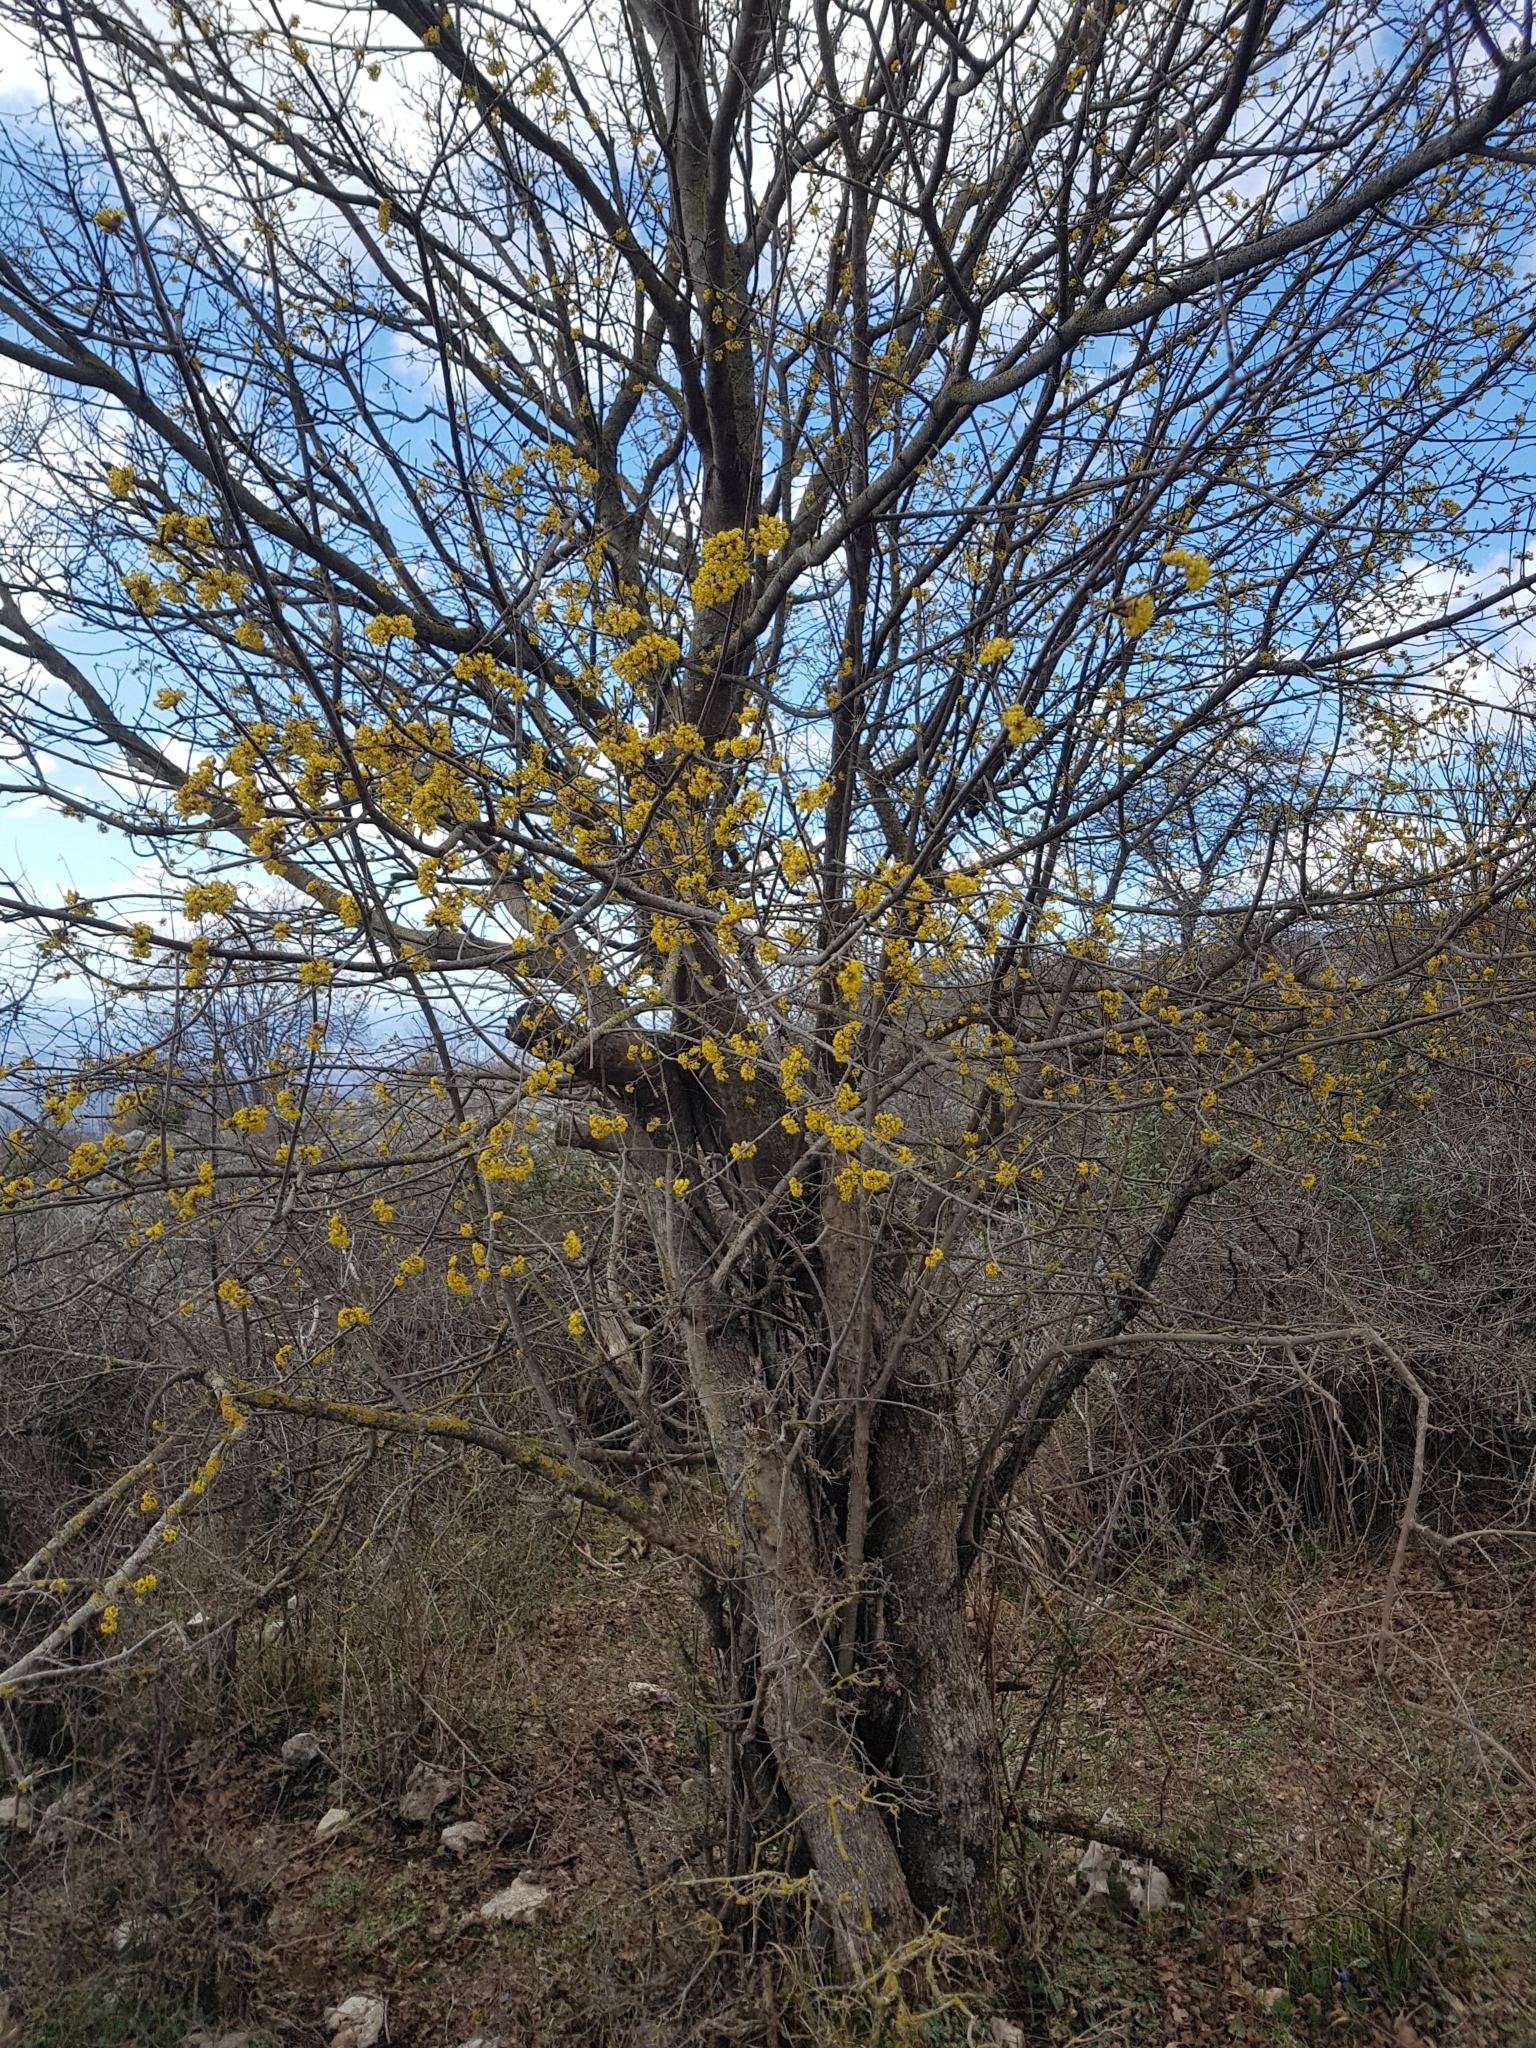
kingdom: Plantae
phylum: Tracheophyta
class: Magnoliopsida
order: Cornales
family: Cornaceae
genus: Cornus
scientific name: Cornus mas
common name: Cornelian-cherry
